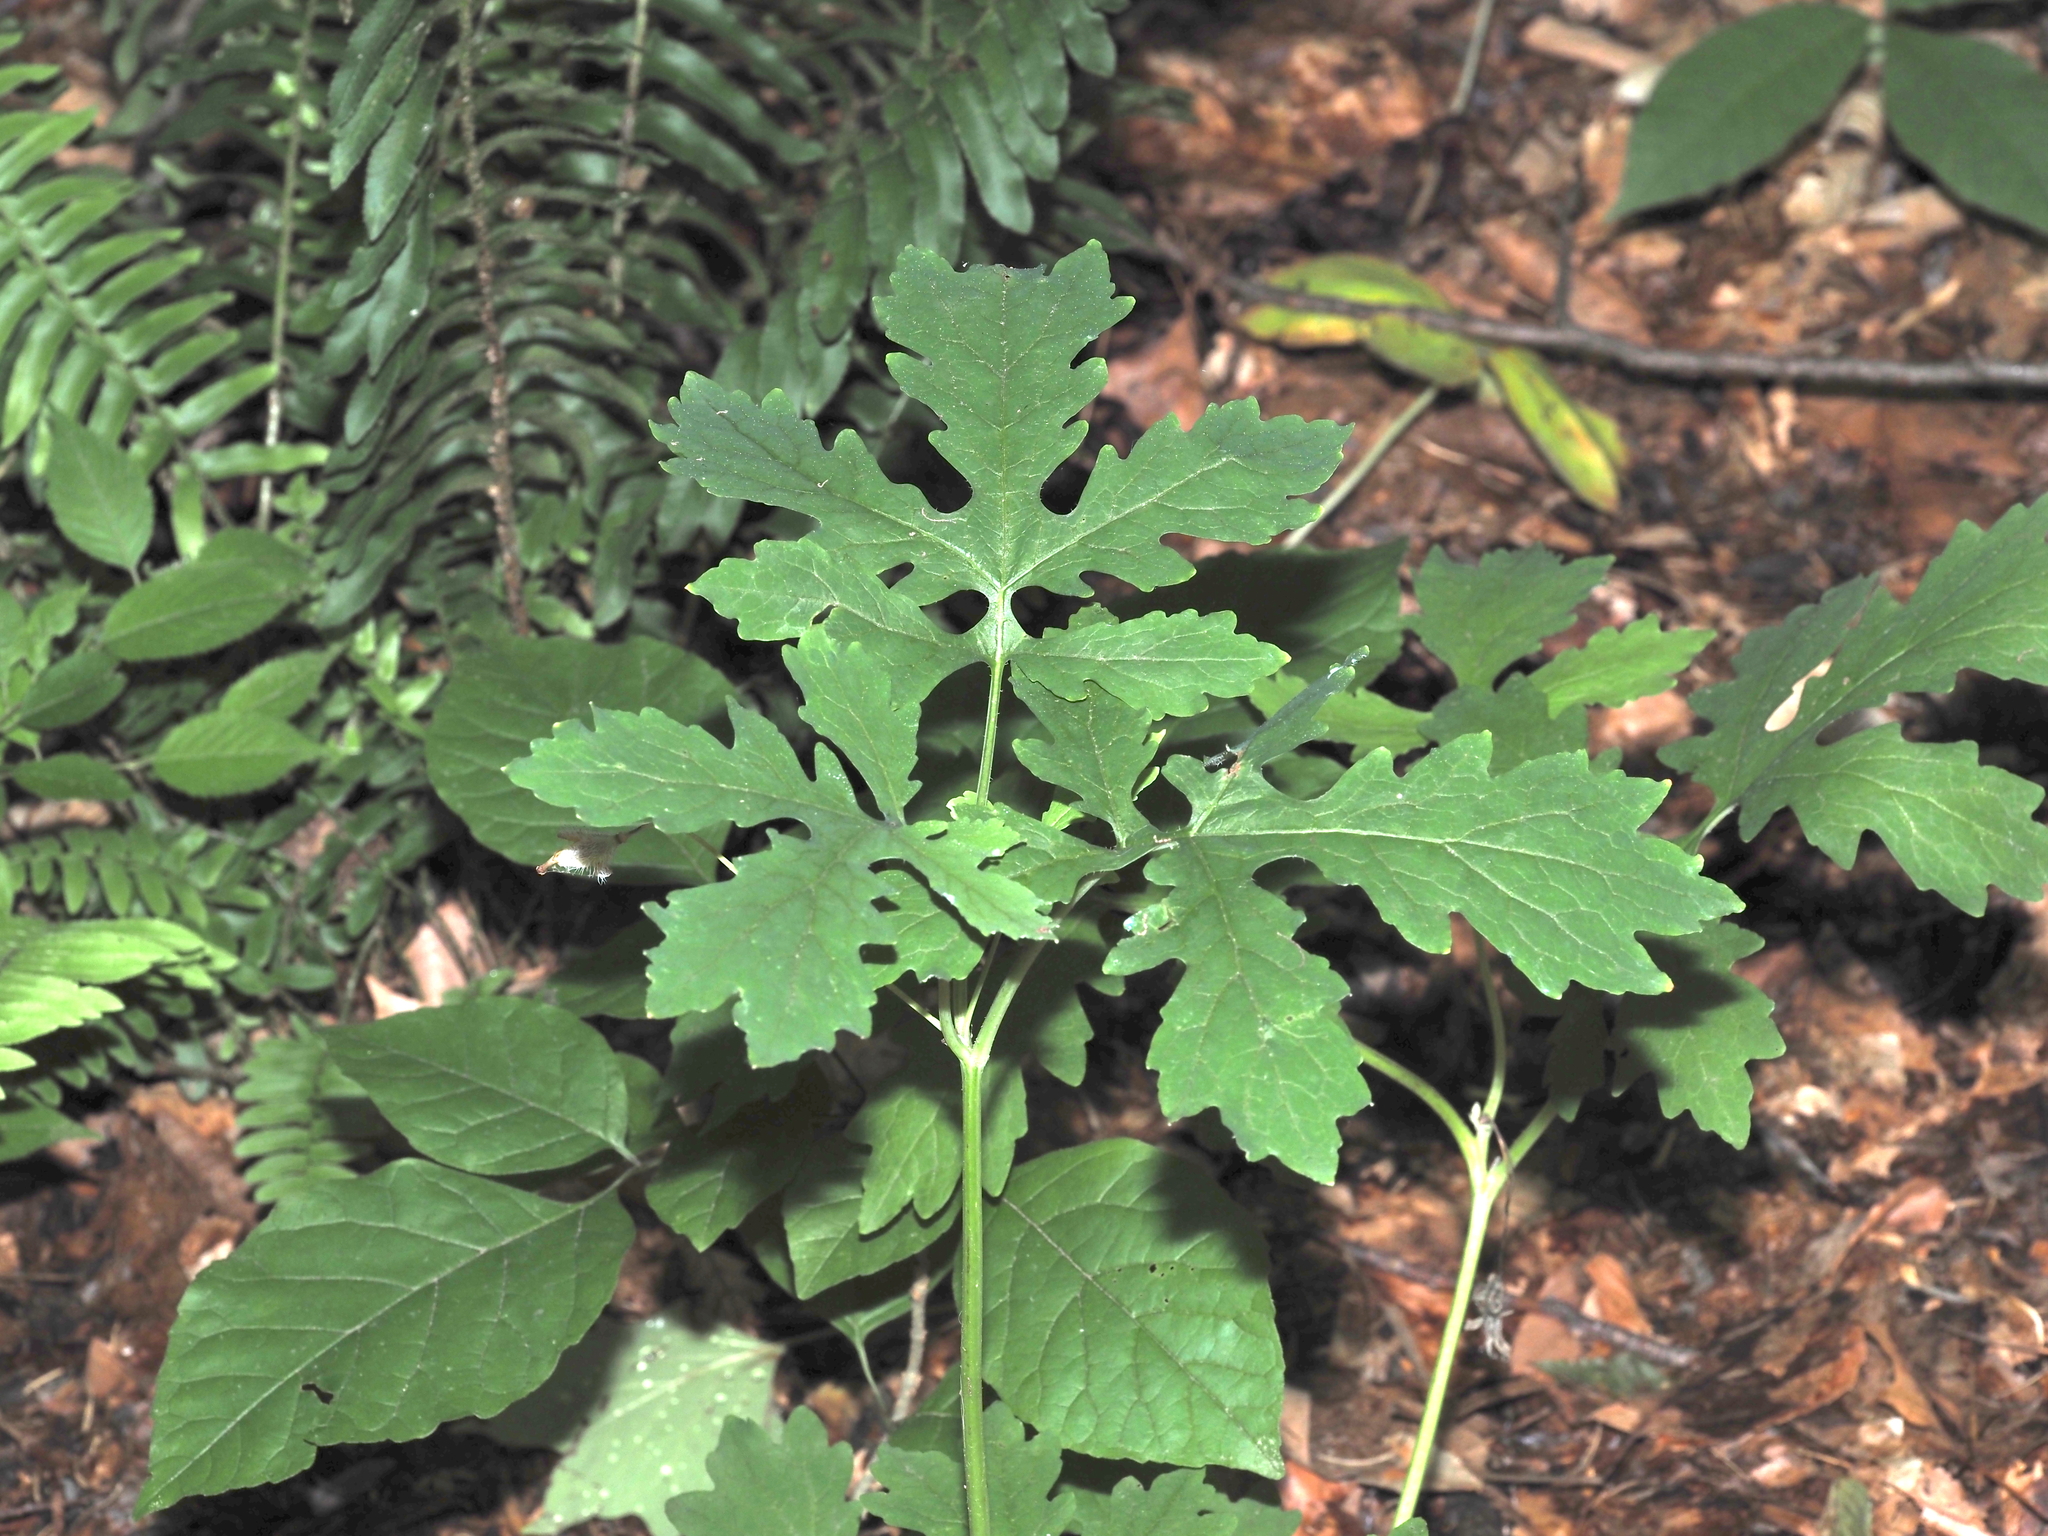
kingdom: Plantae
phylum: Tracheophyta
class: Magnoliopsida
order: Ranunculales
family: Papaveraceae
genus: Stylophorum
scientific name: Stylophorum diphyllum
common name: Celandine poppy
